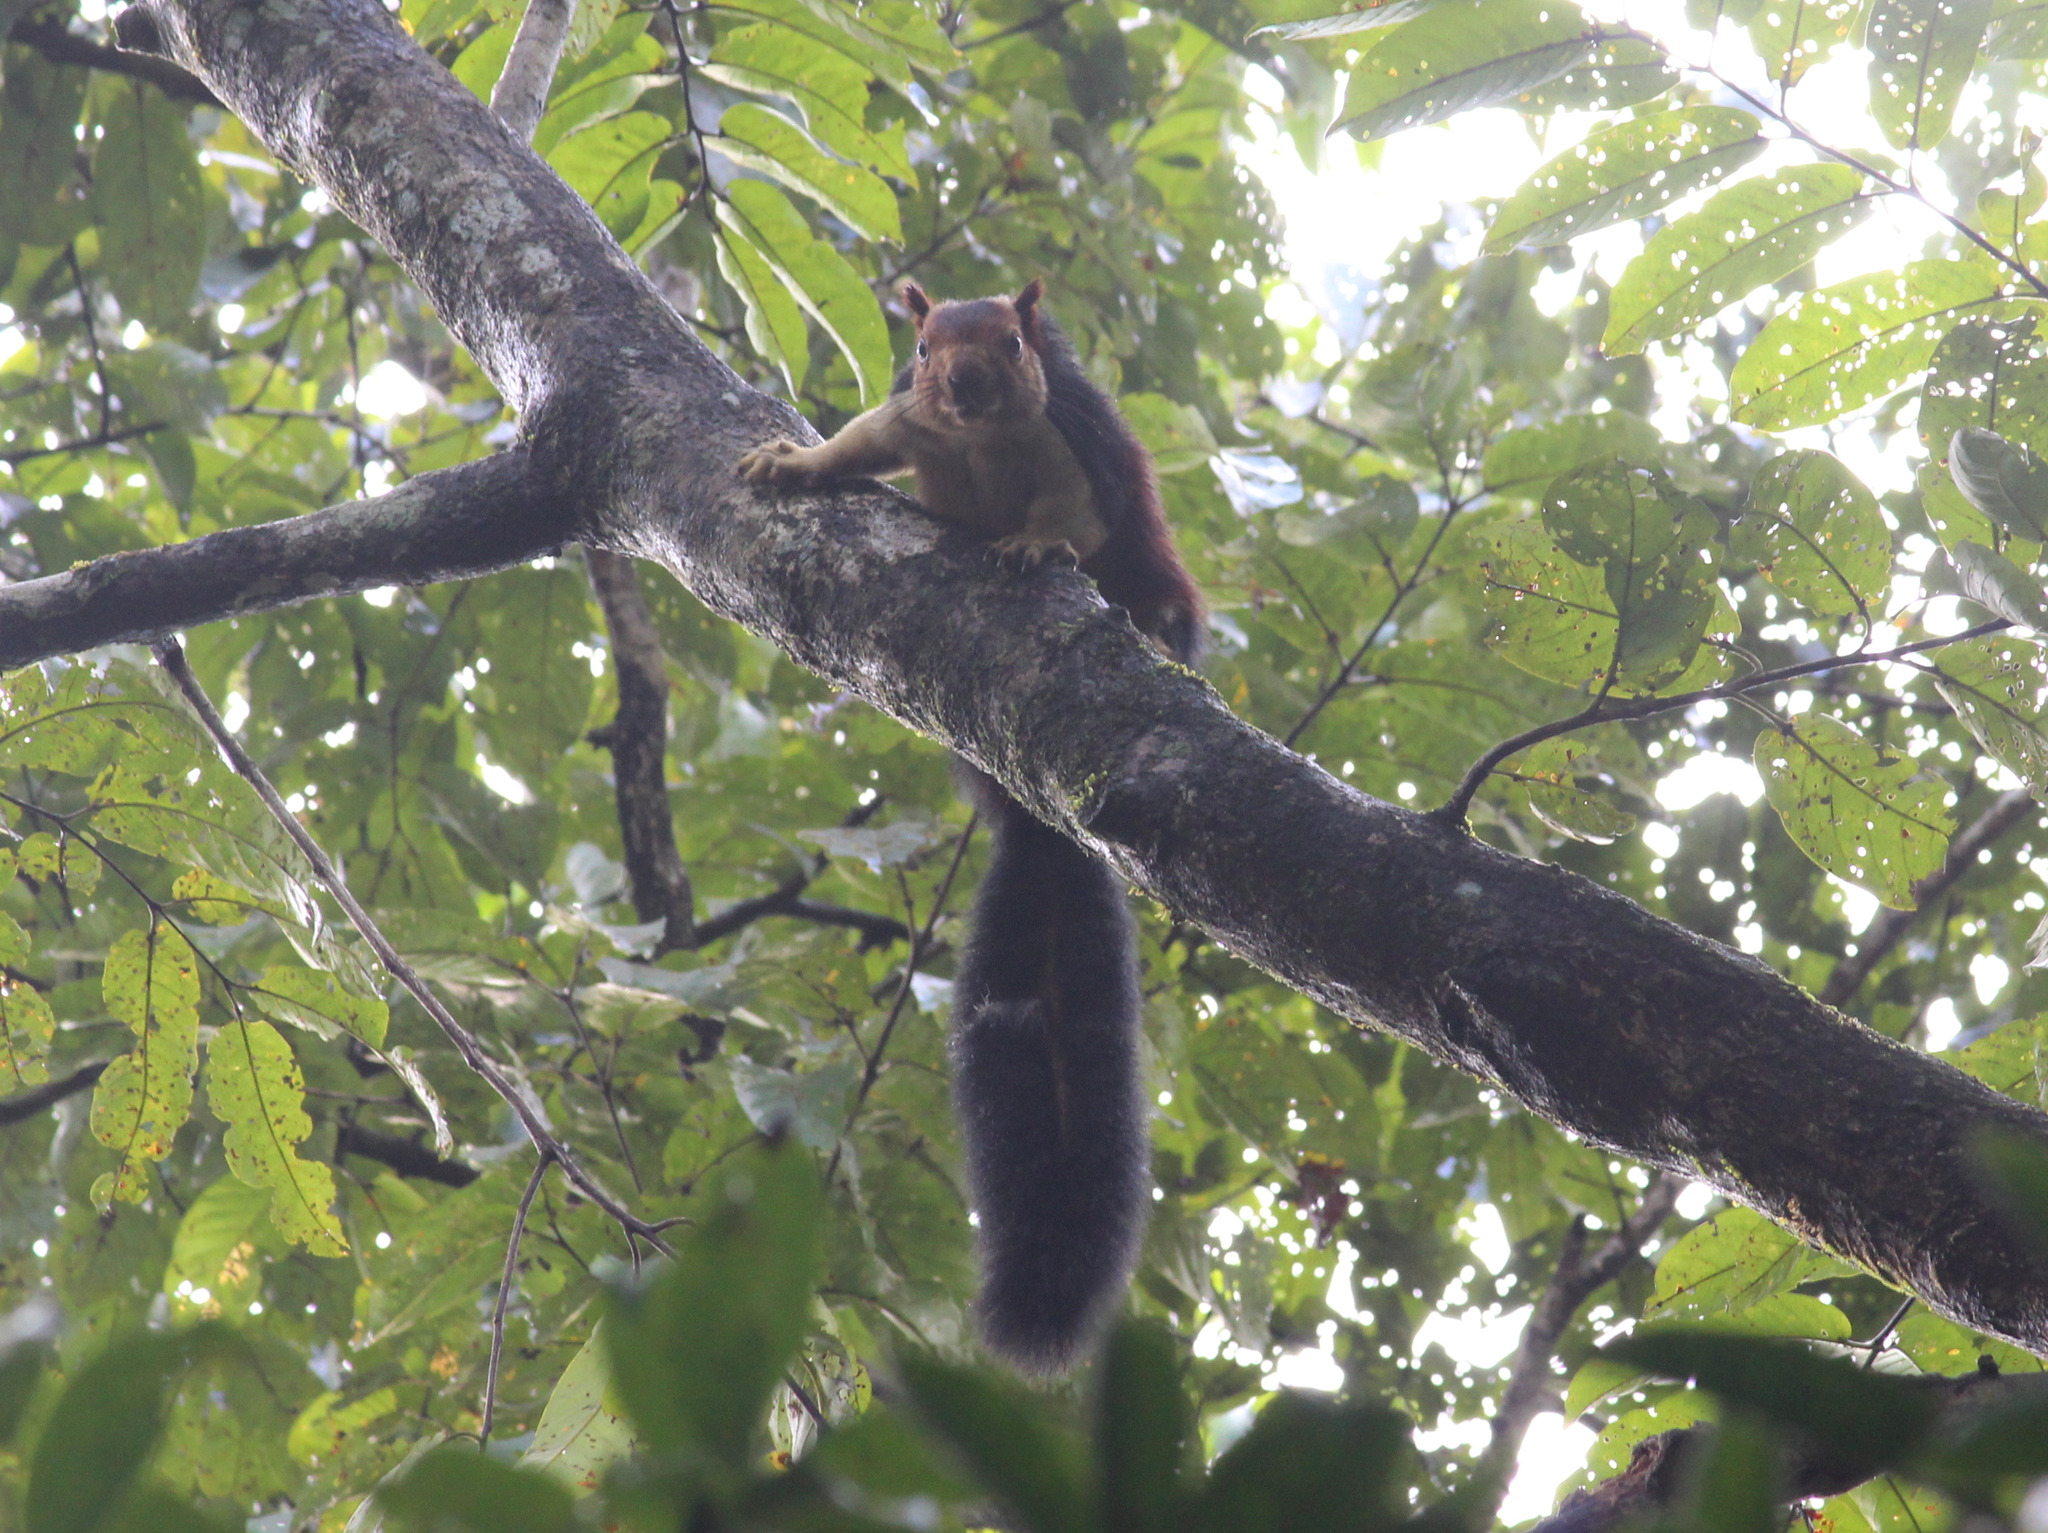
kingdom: Animalia
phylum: Chordata
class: Mammalia
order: Rodentia
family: Sciuridae
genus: Ratufa
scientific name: Ratufa indica
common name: Indian giant squirrel
